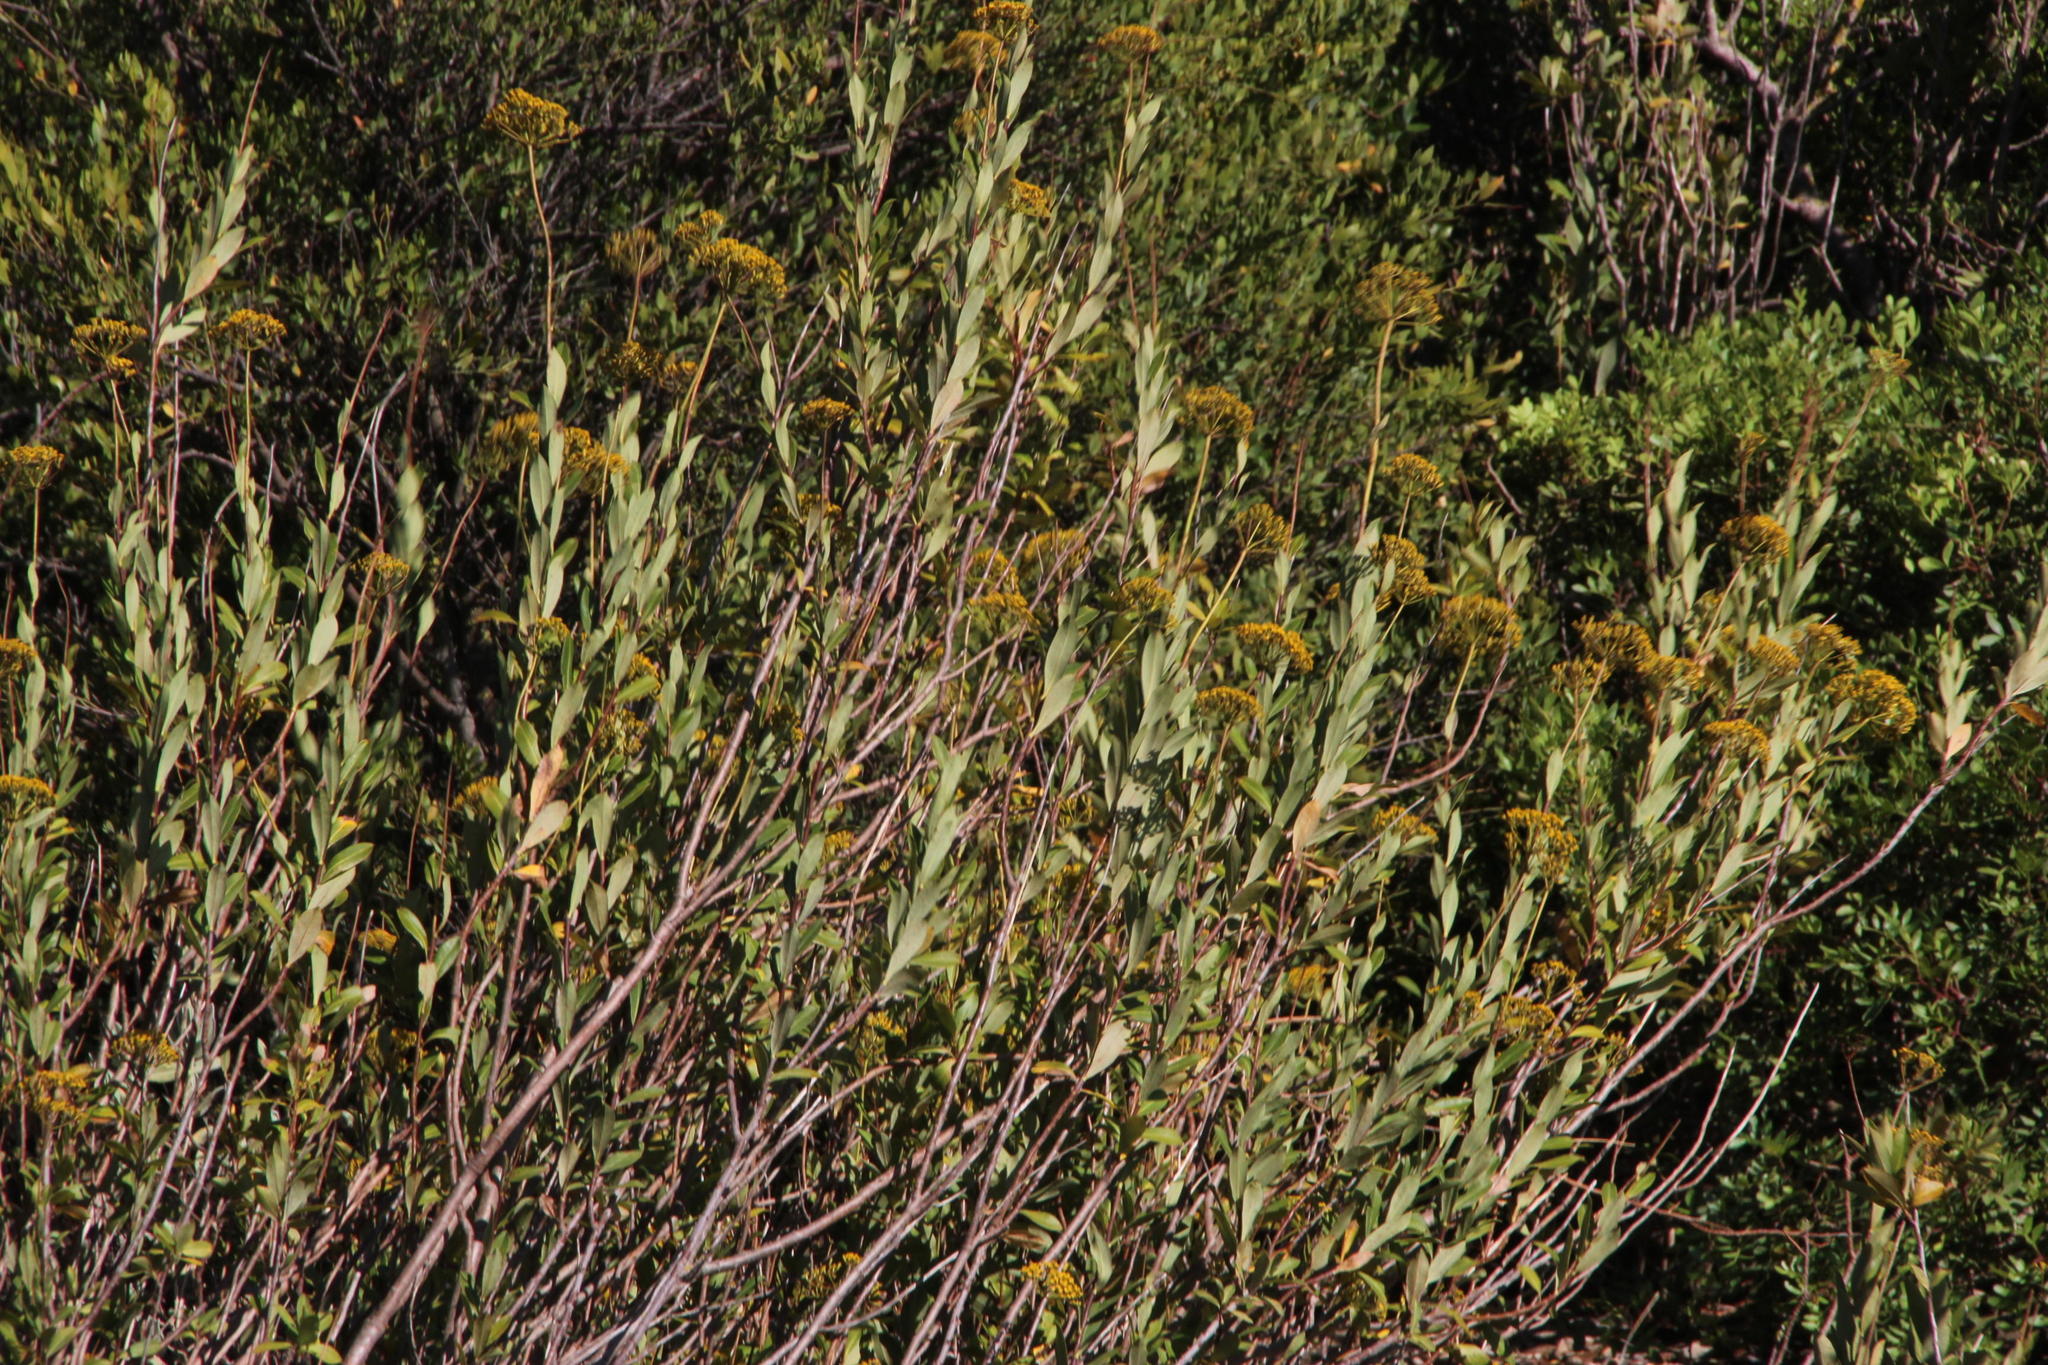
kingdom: Plantae
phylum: Tracheophyta
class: Magnoliopsida
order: Apiales
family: Apiaceae
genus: Bupleurum
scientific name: Bupleurum fruticosum
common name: Shrubby hare's-ear
